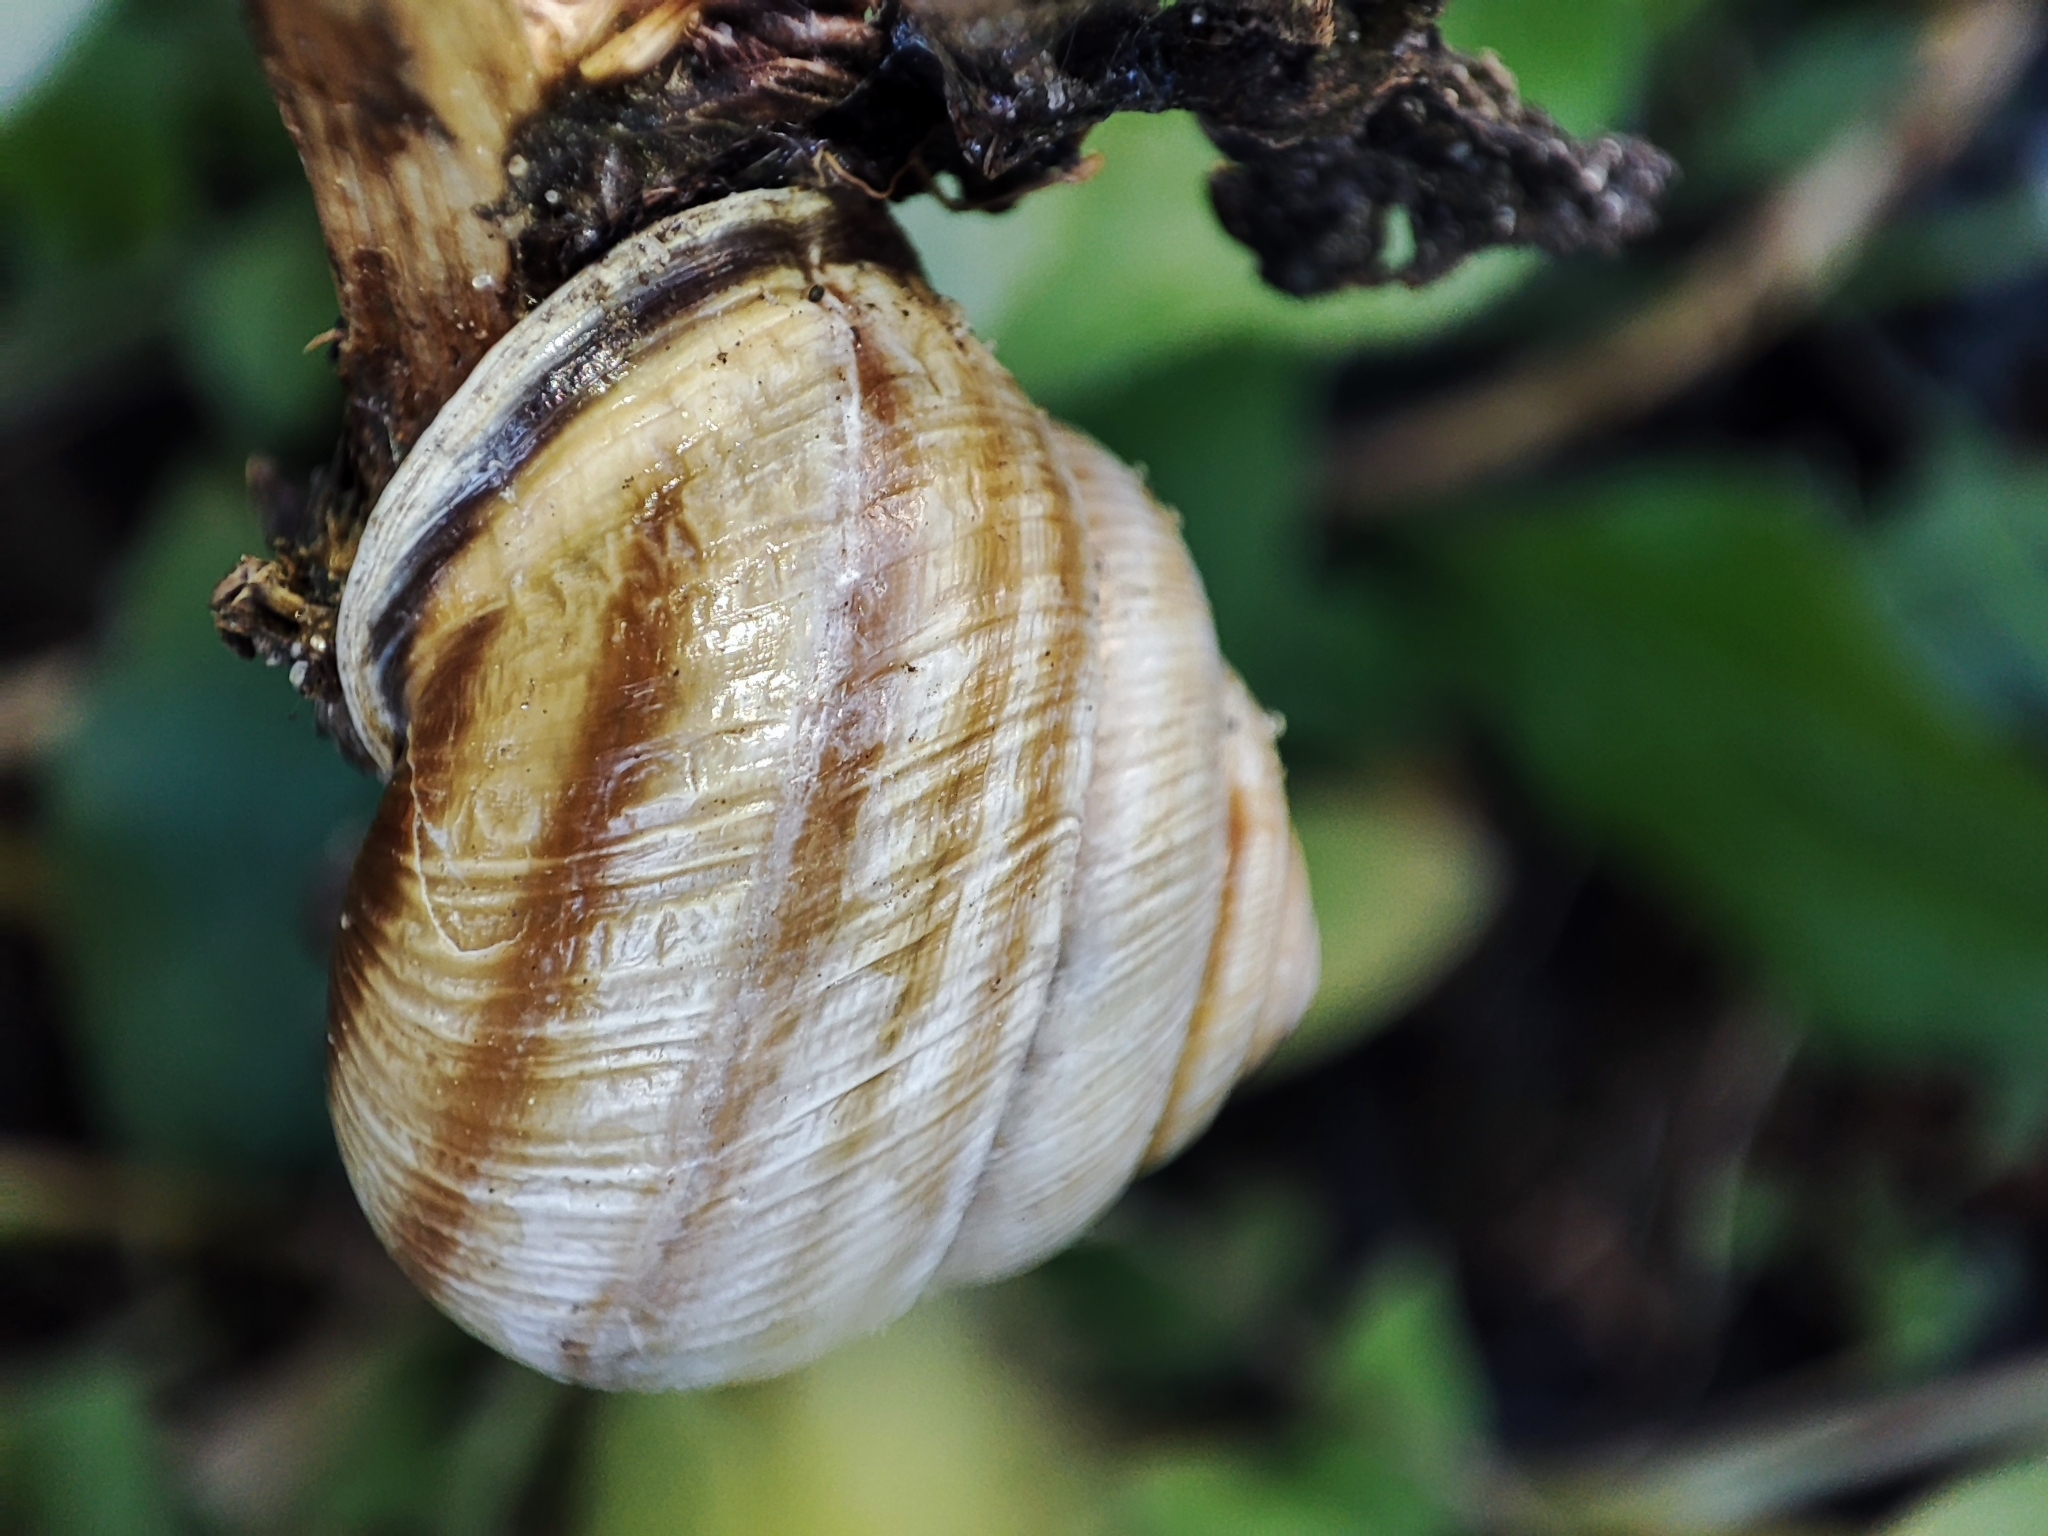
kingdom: Animalia
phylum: Mollusca
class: Gastropoda
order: Stylommatophora
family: Helicidae
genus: Caucasotachea
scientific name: Caucasotachea vindobonensis
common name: European helicid land snail
